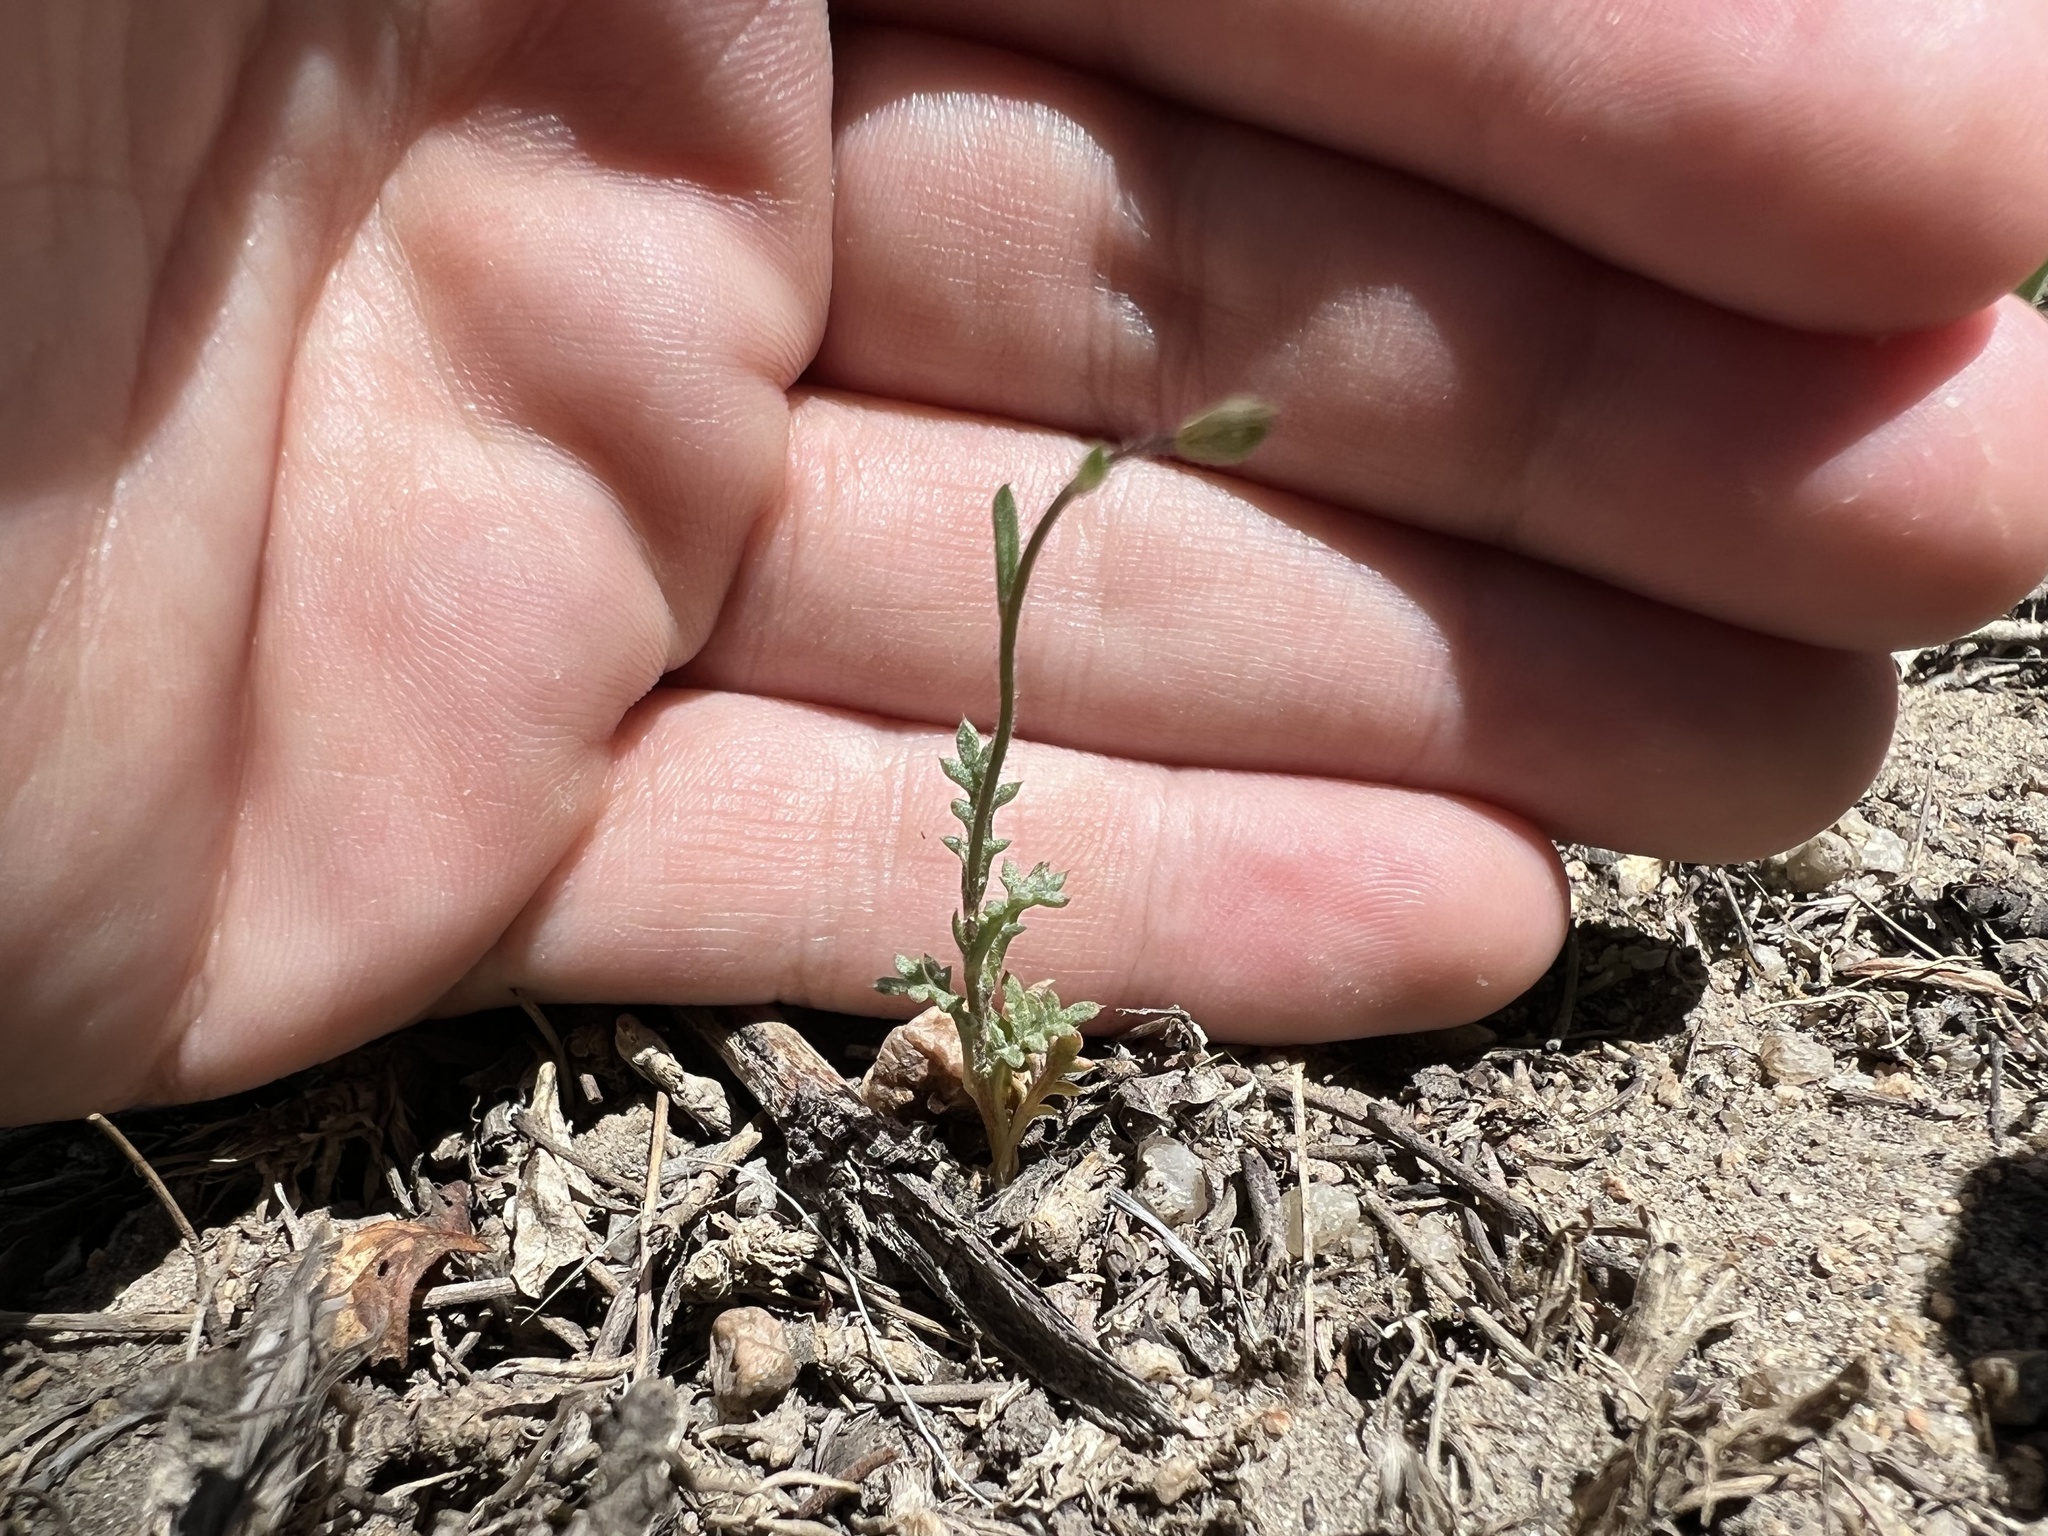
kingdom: Plantae
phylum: Tracheophyta
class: Magnoliopsida
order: Ericales
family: Polemoniaceae
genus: Gilia
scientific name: Gilia clokeyi
